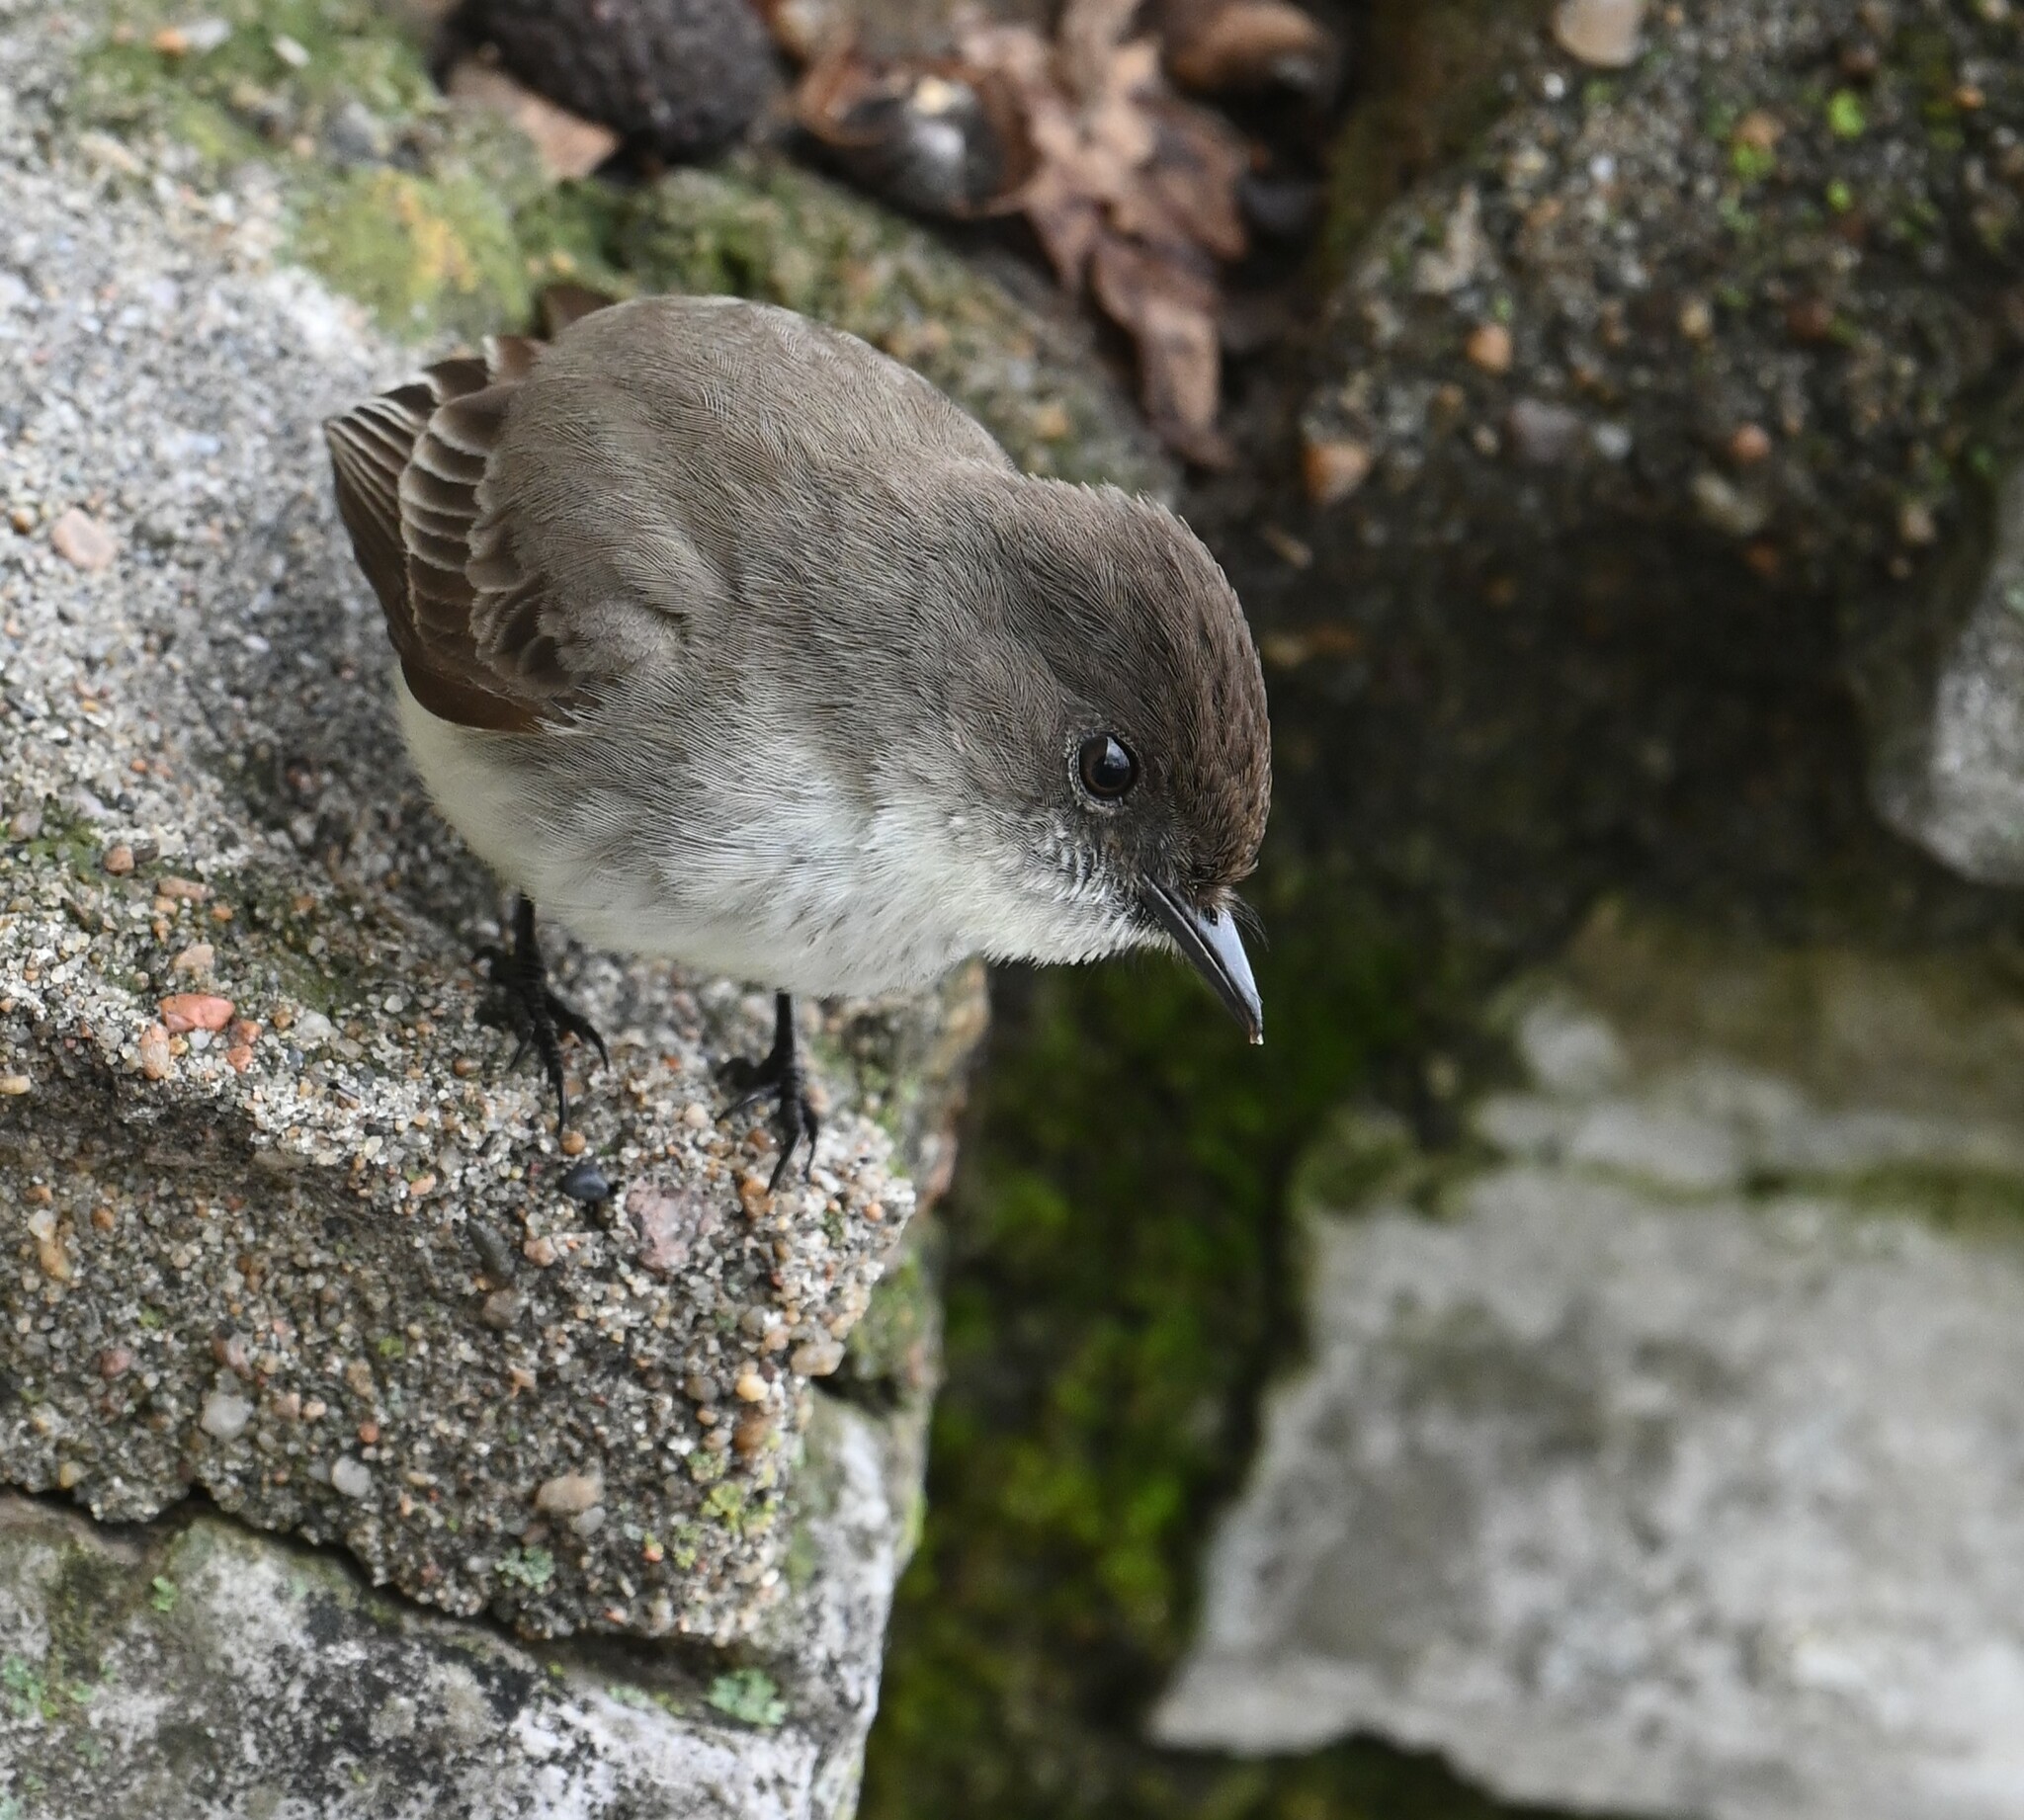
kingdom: Animalia
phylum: Chordata
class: Aves
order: Passeriformes
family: Tyrannidae
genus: Sayornis
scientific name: Sayornis phoebe
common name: Eastern phoebe
